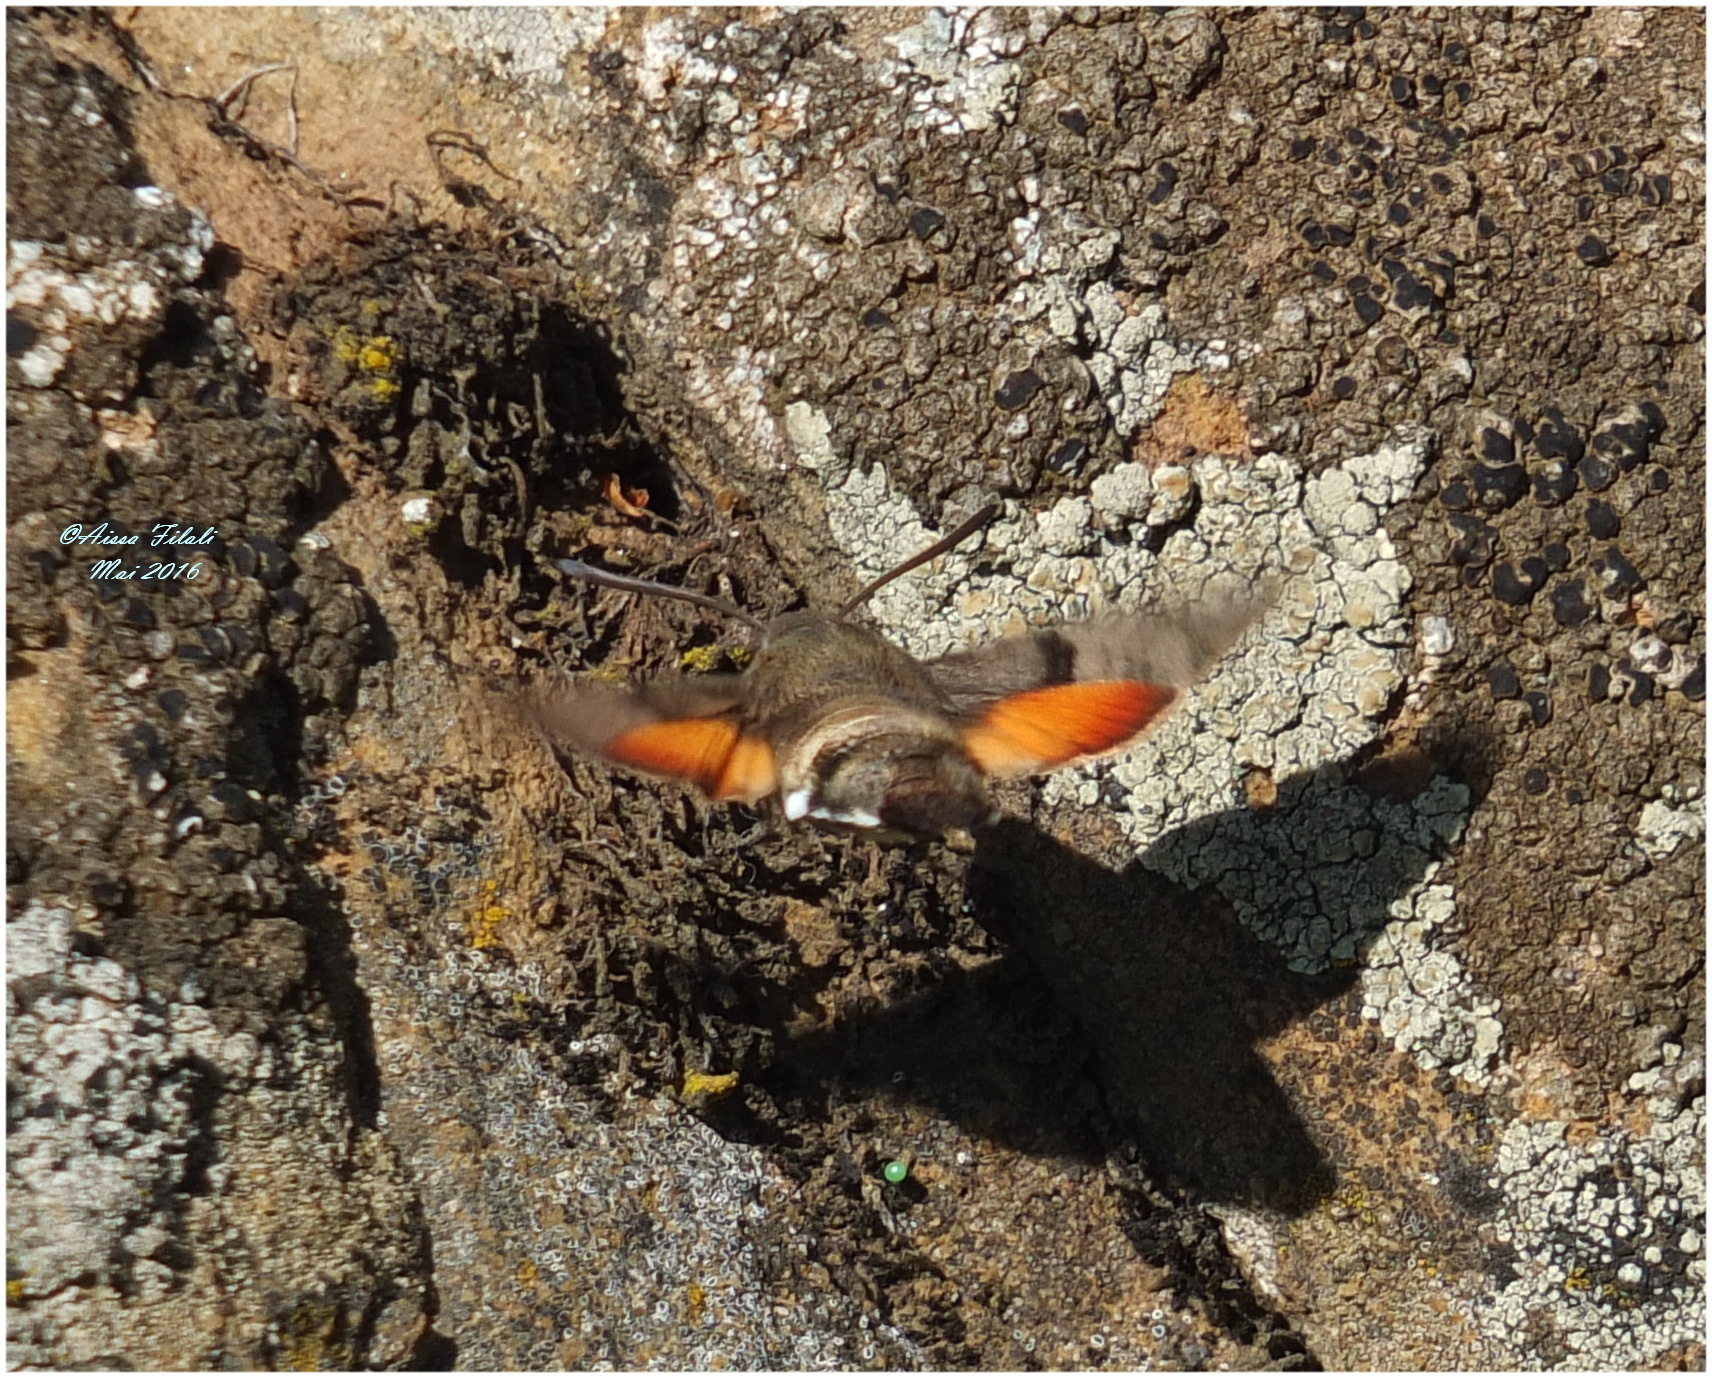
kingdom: Animalia
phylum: Arthropoda
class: Insecta
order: Lepidoptera
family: Sphingidae
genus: Macroglossum
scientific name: Macroglossum stellatarum
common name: Humming-bird hawk-moth
